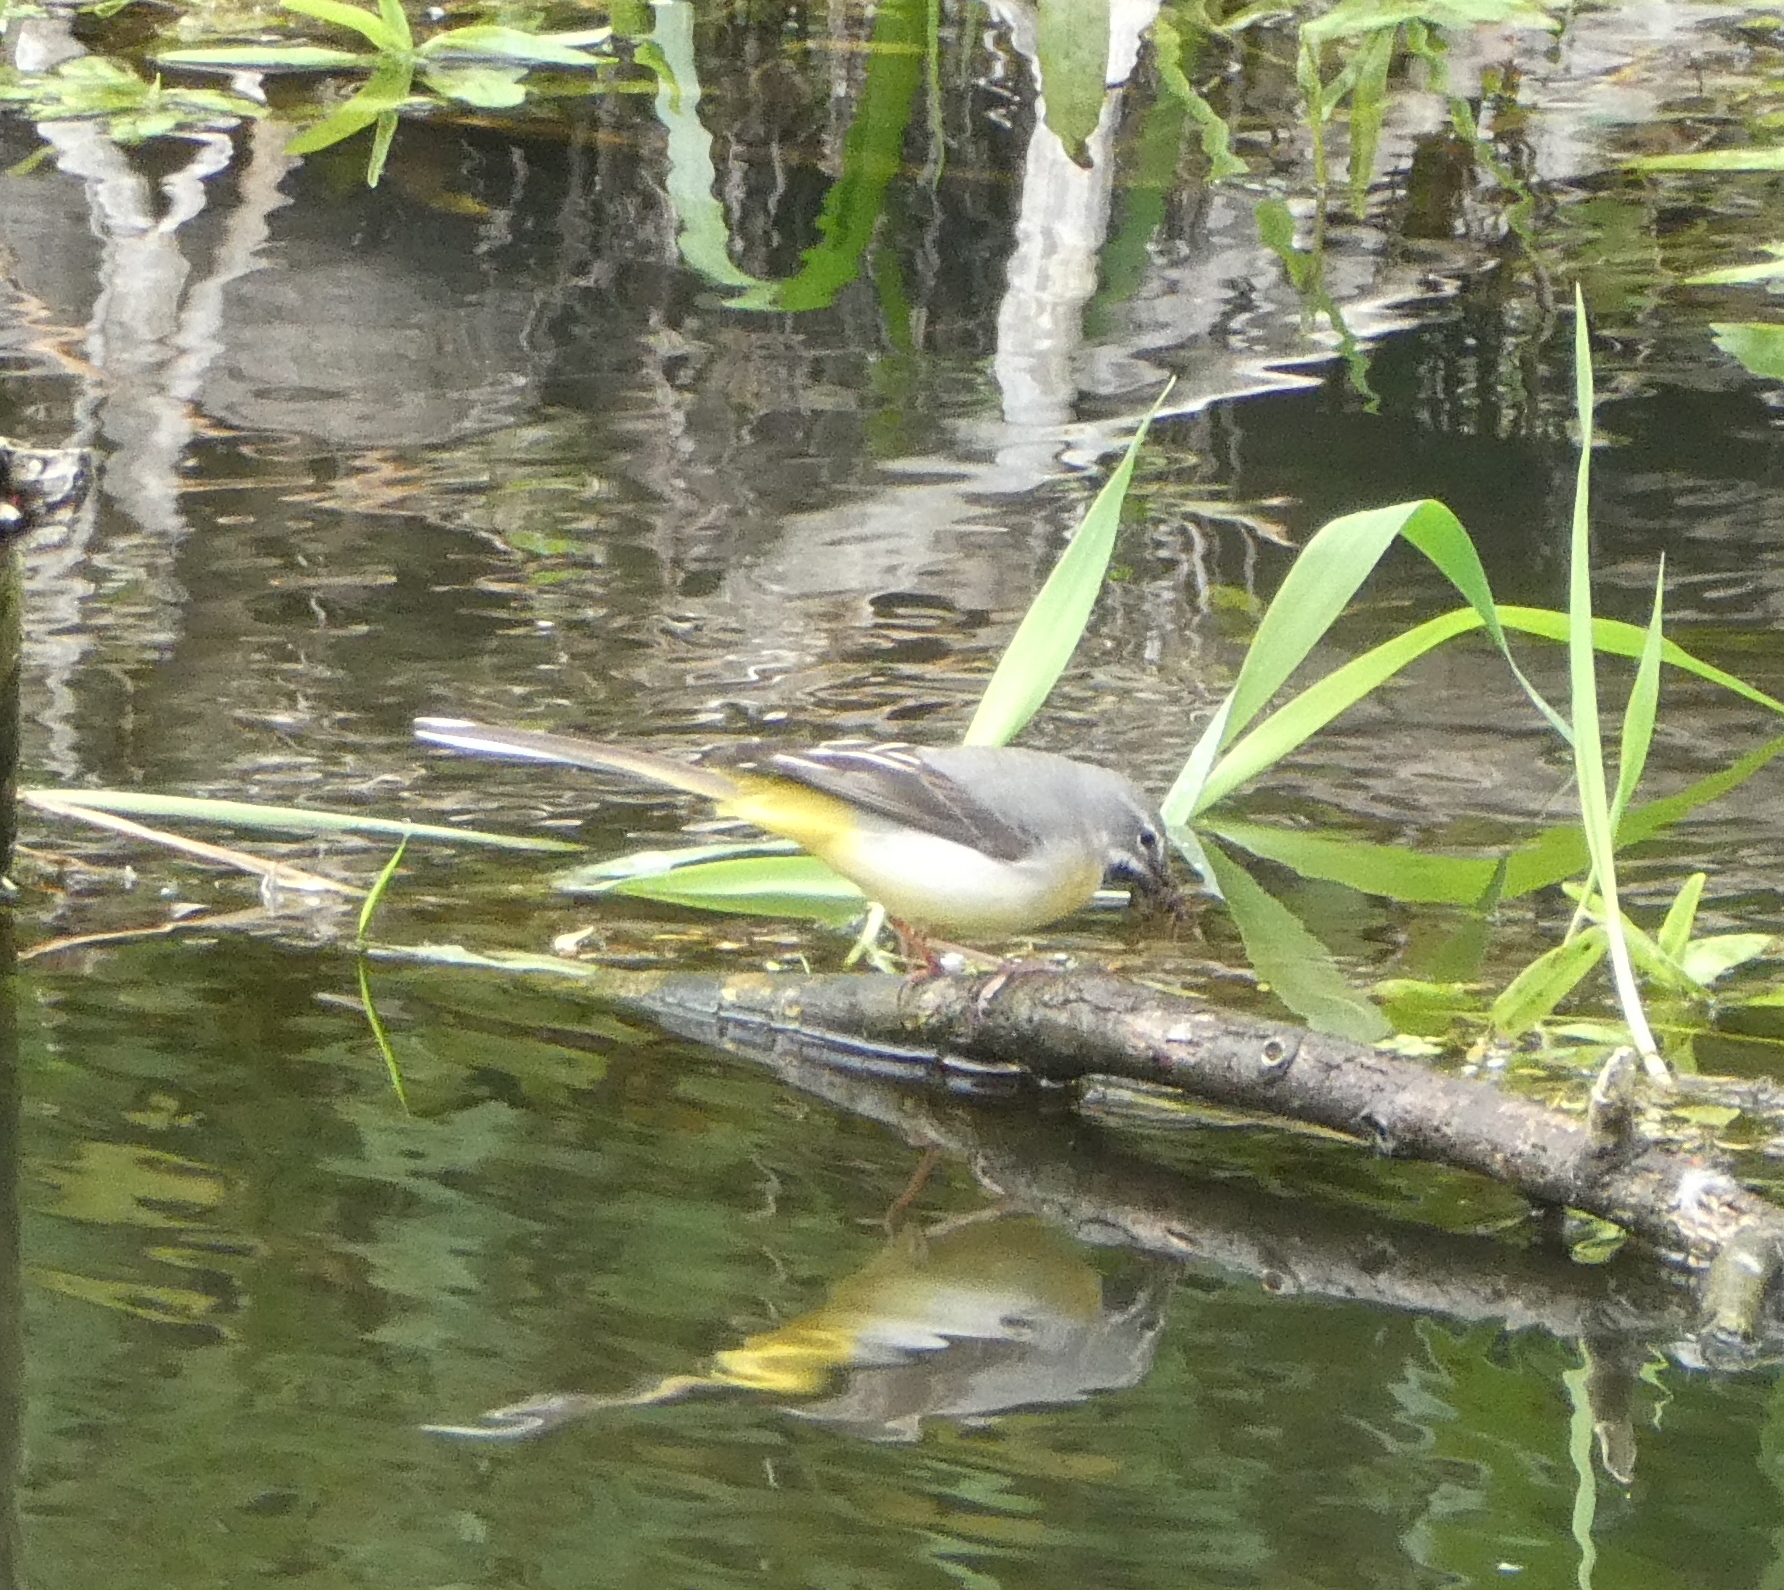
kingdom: Animalia
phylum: Chordata
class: Aves
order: Passeriformes
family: Motacillidae
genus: Motacilla
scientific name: Motacilla cinerea
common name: Grey wagtail
